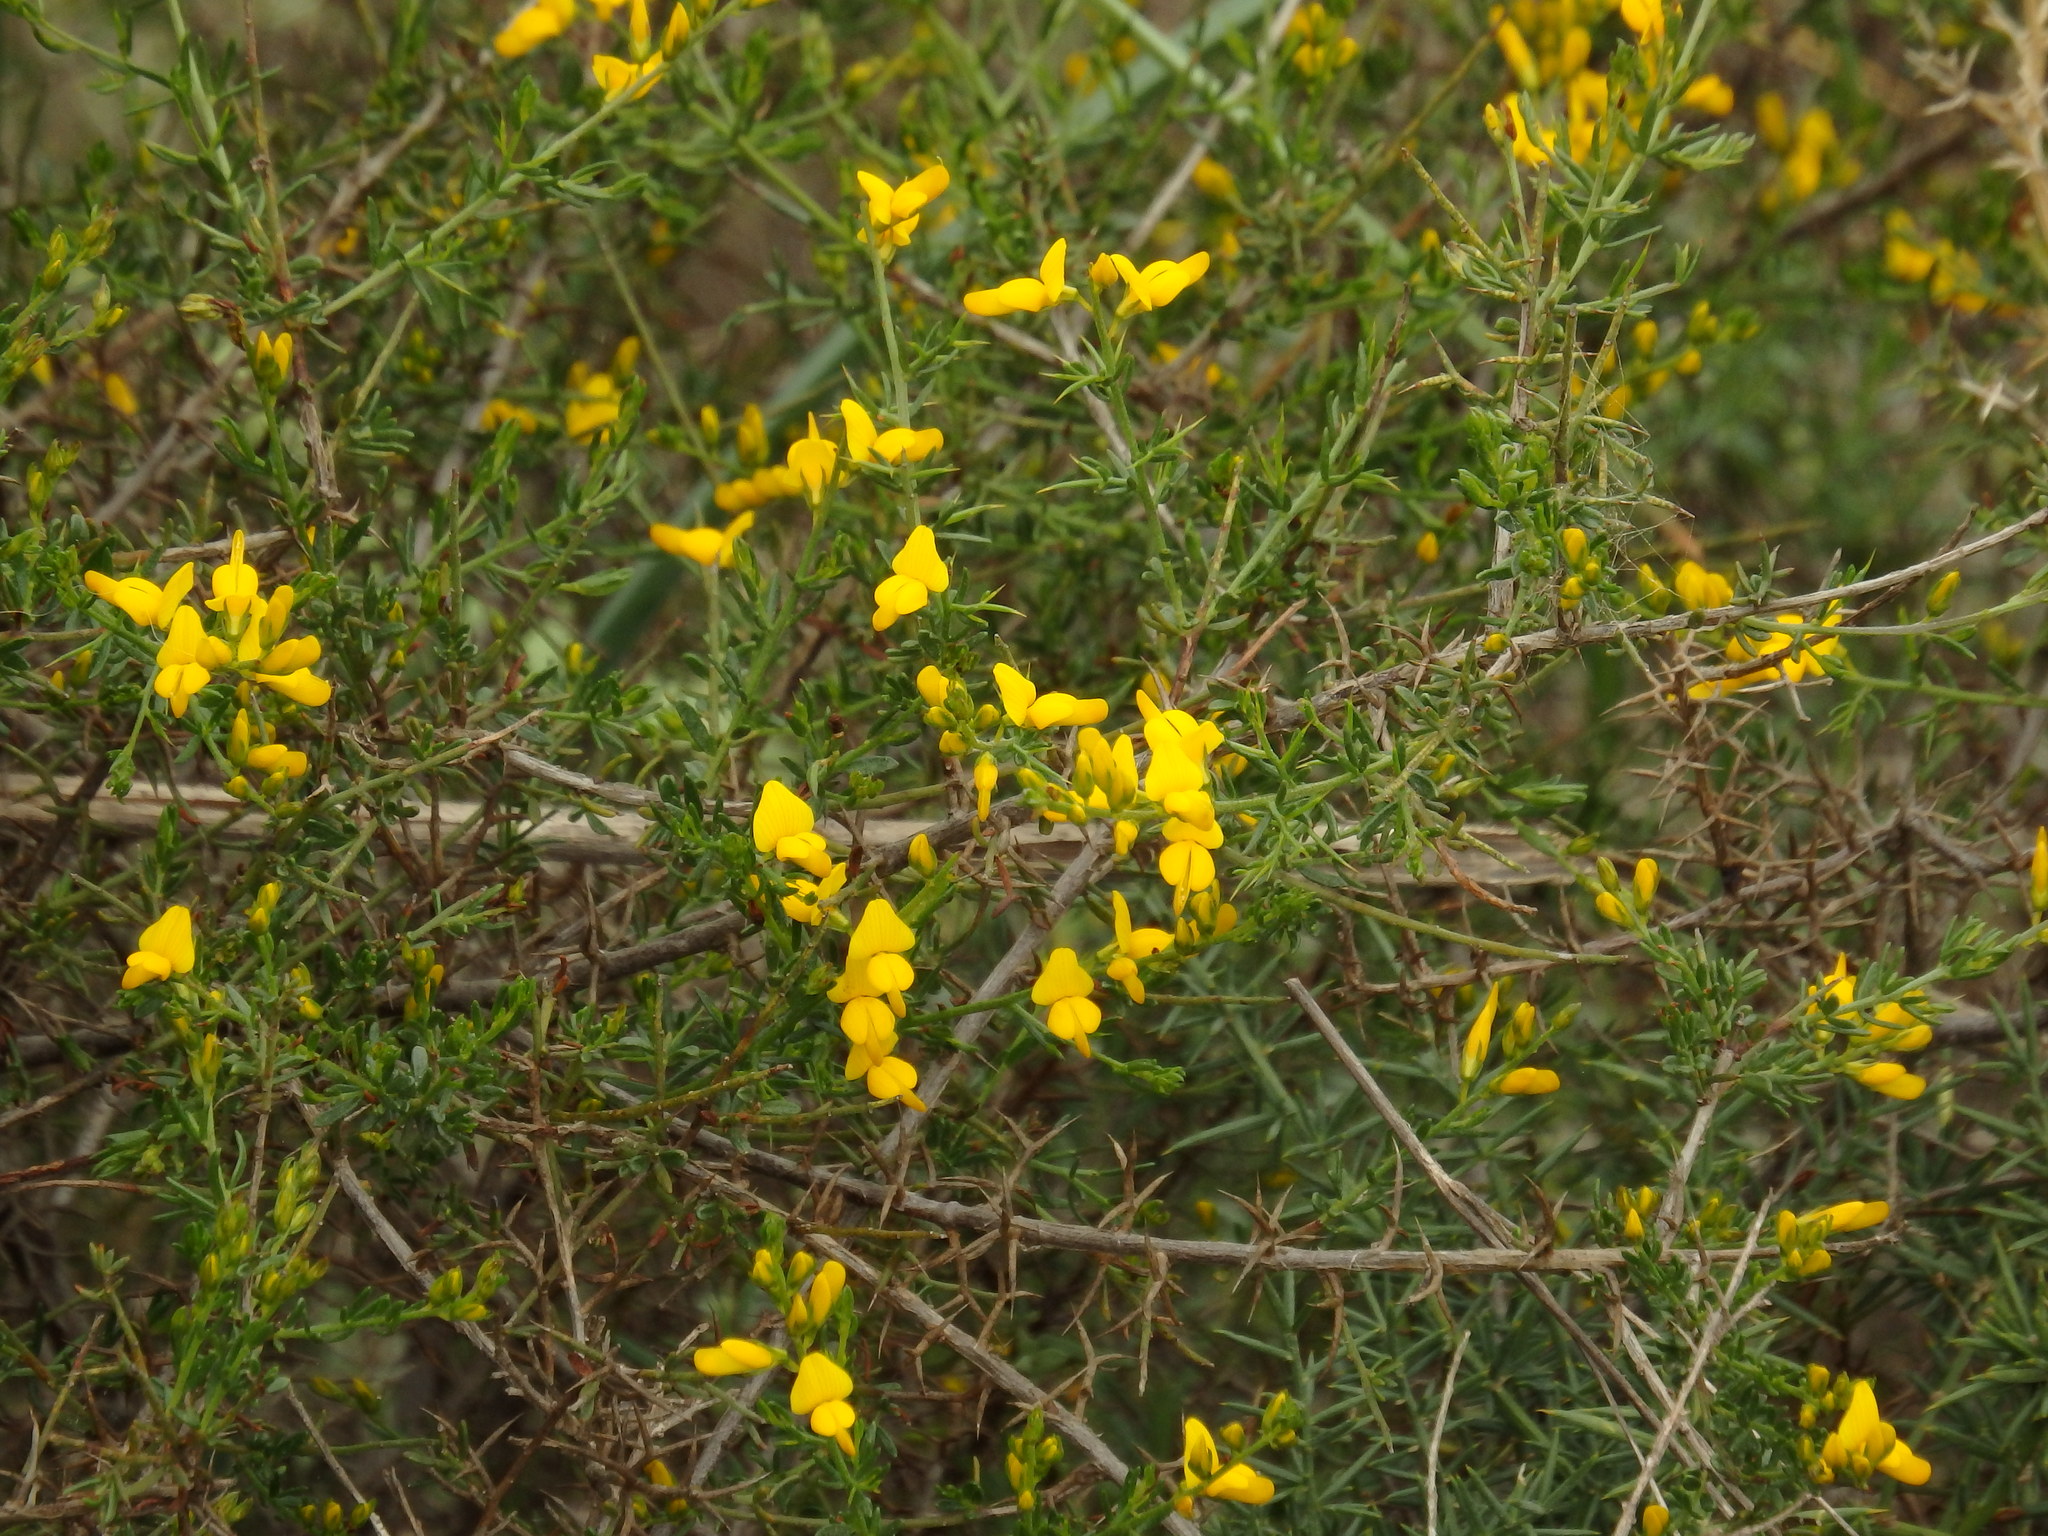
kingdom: Plantae
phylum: Tracheophyta
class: Magnoliopsida
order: Fabales
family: Fabaceae
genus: Genista
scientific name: Genista triacanthos
